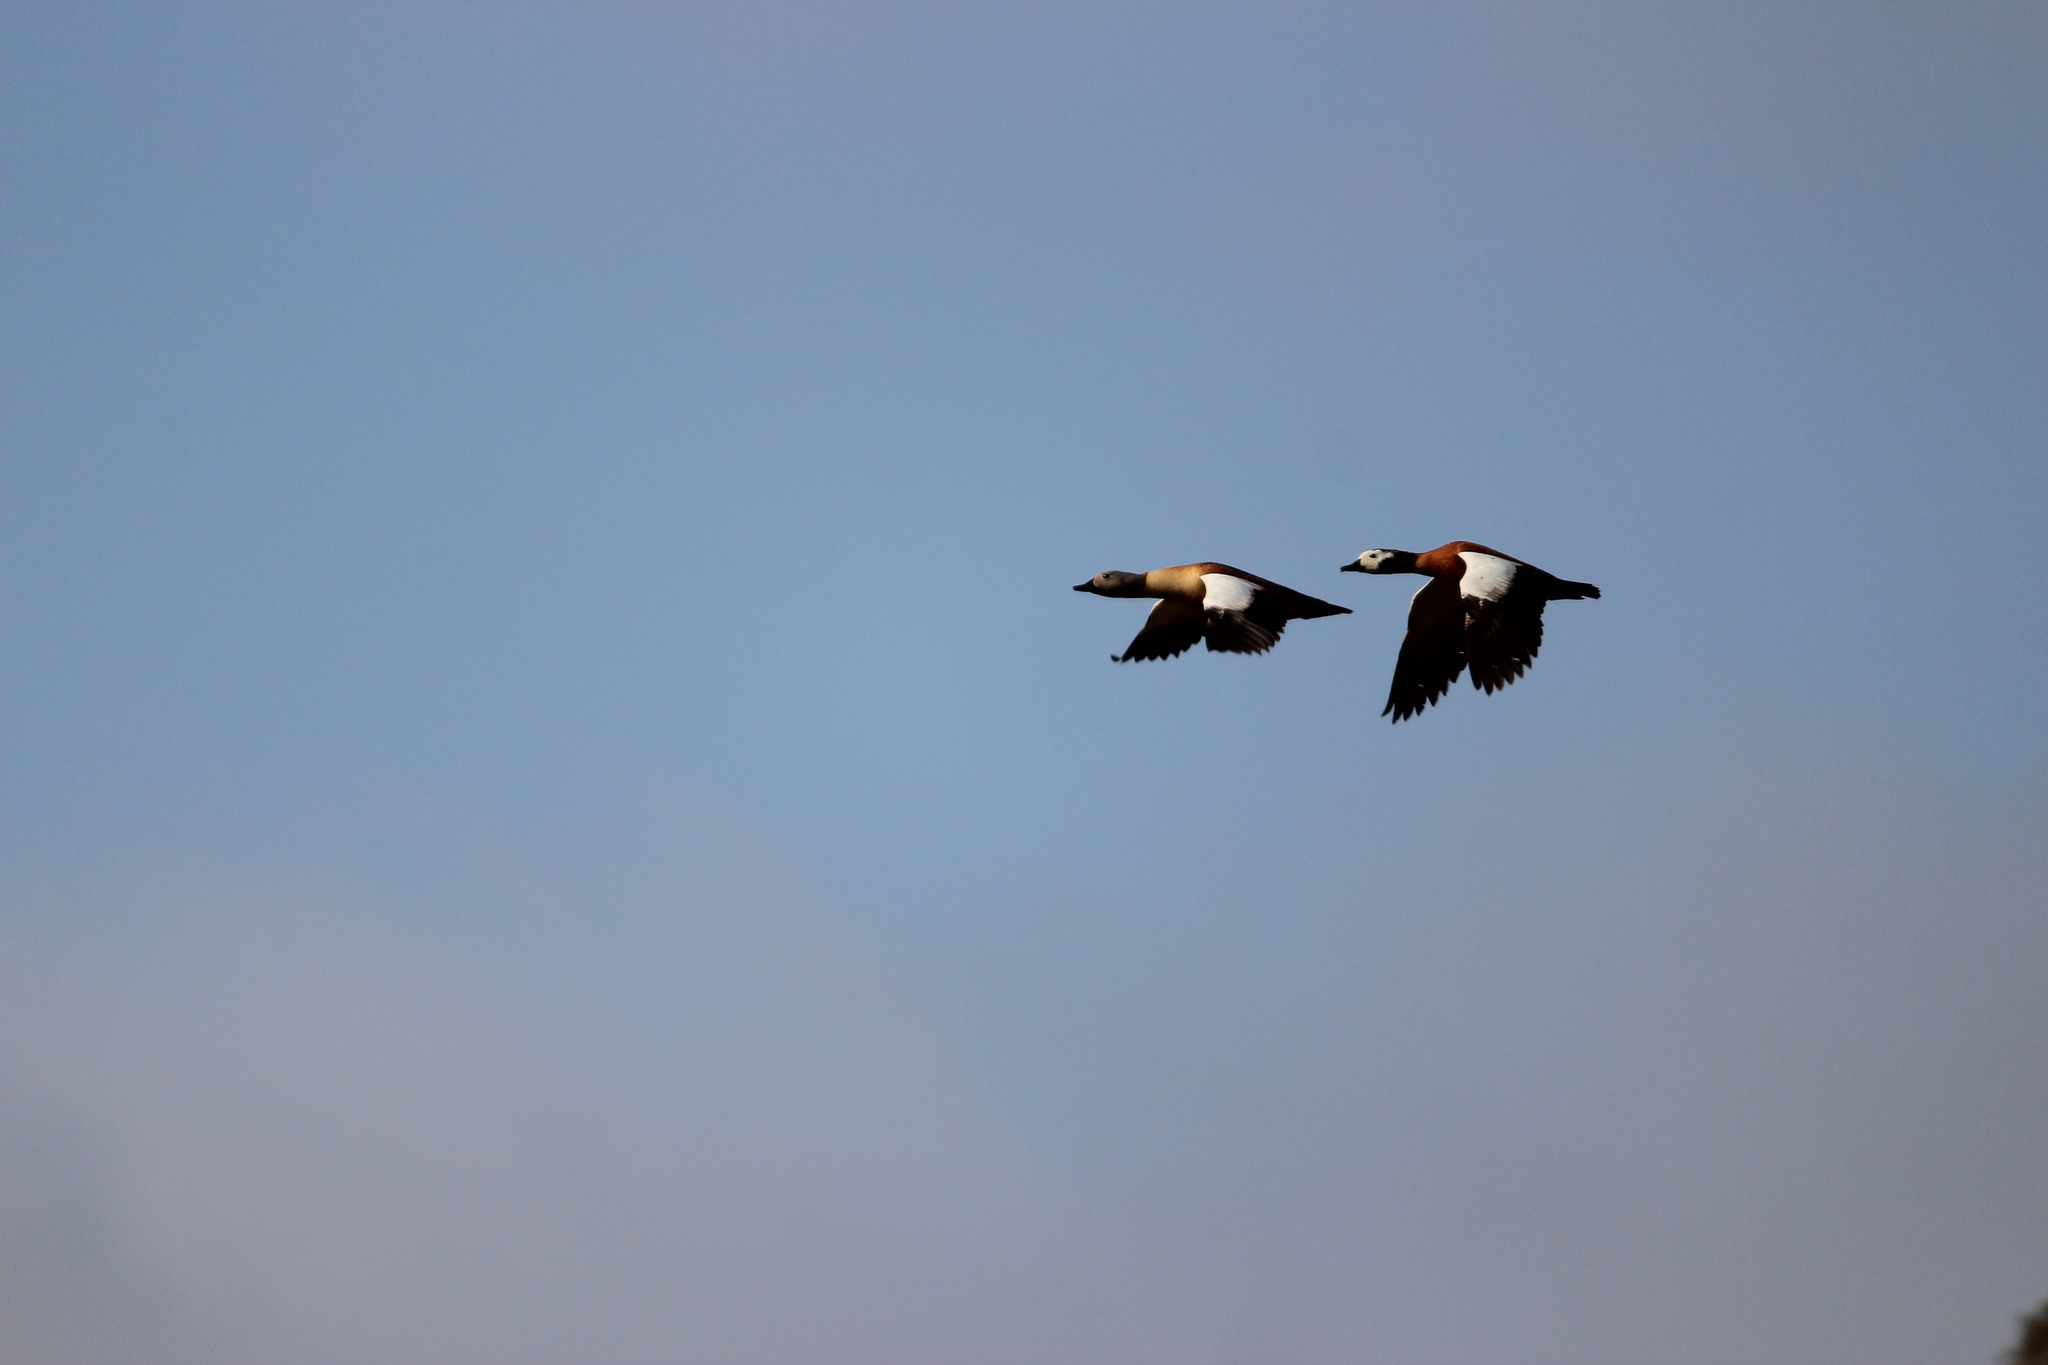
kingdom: Animalia
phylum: Chordata
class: Aves
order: Anseriformes
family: Anatidae
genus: Tadorna
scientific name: Tadorna cana
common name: South african shelduck
